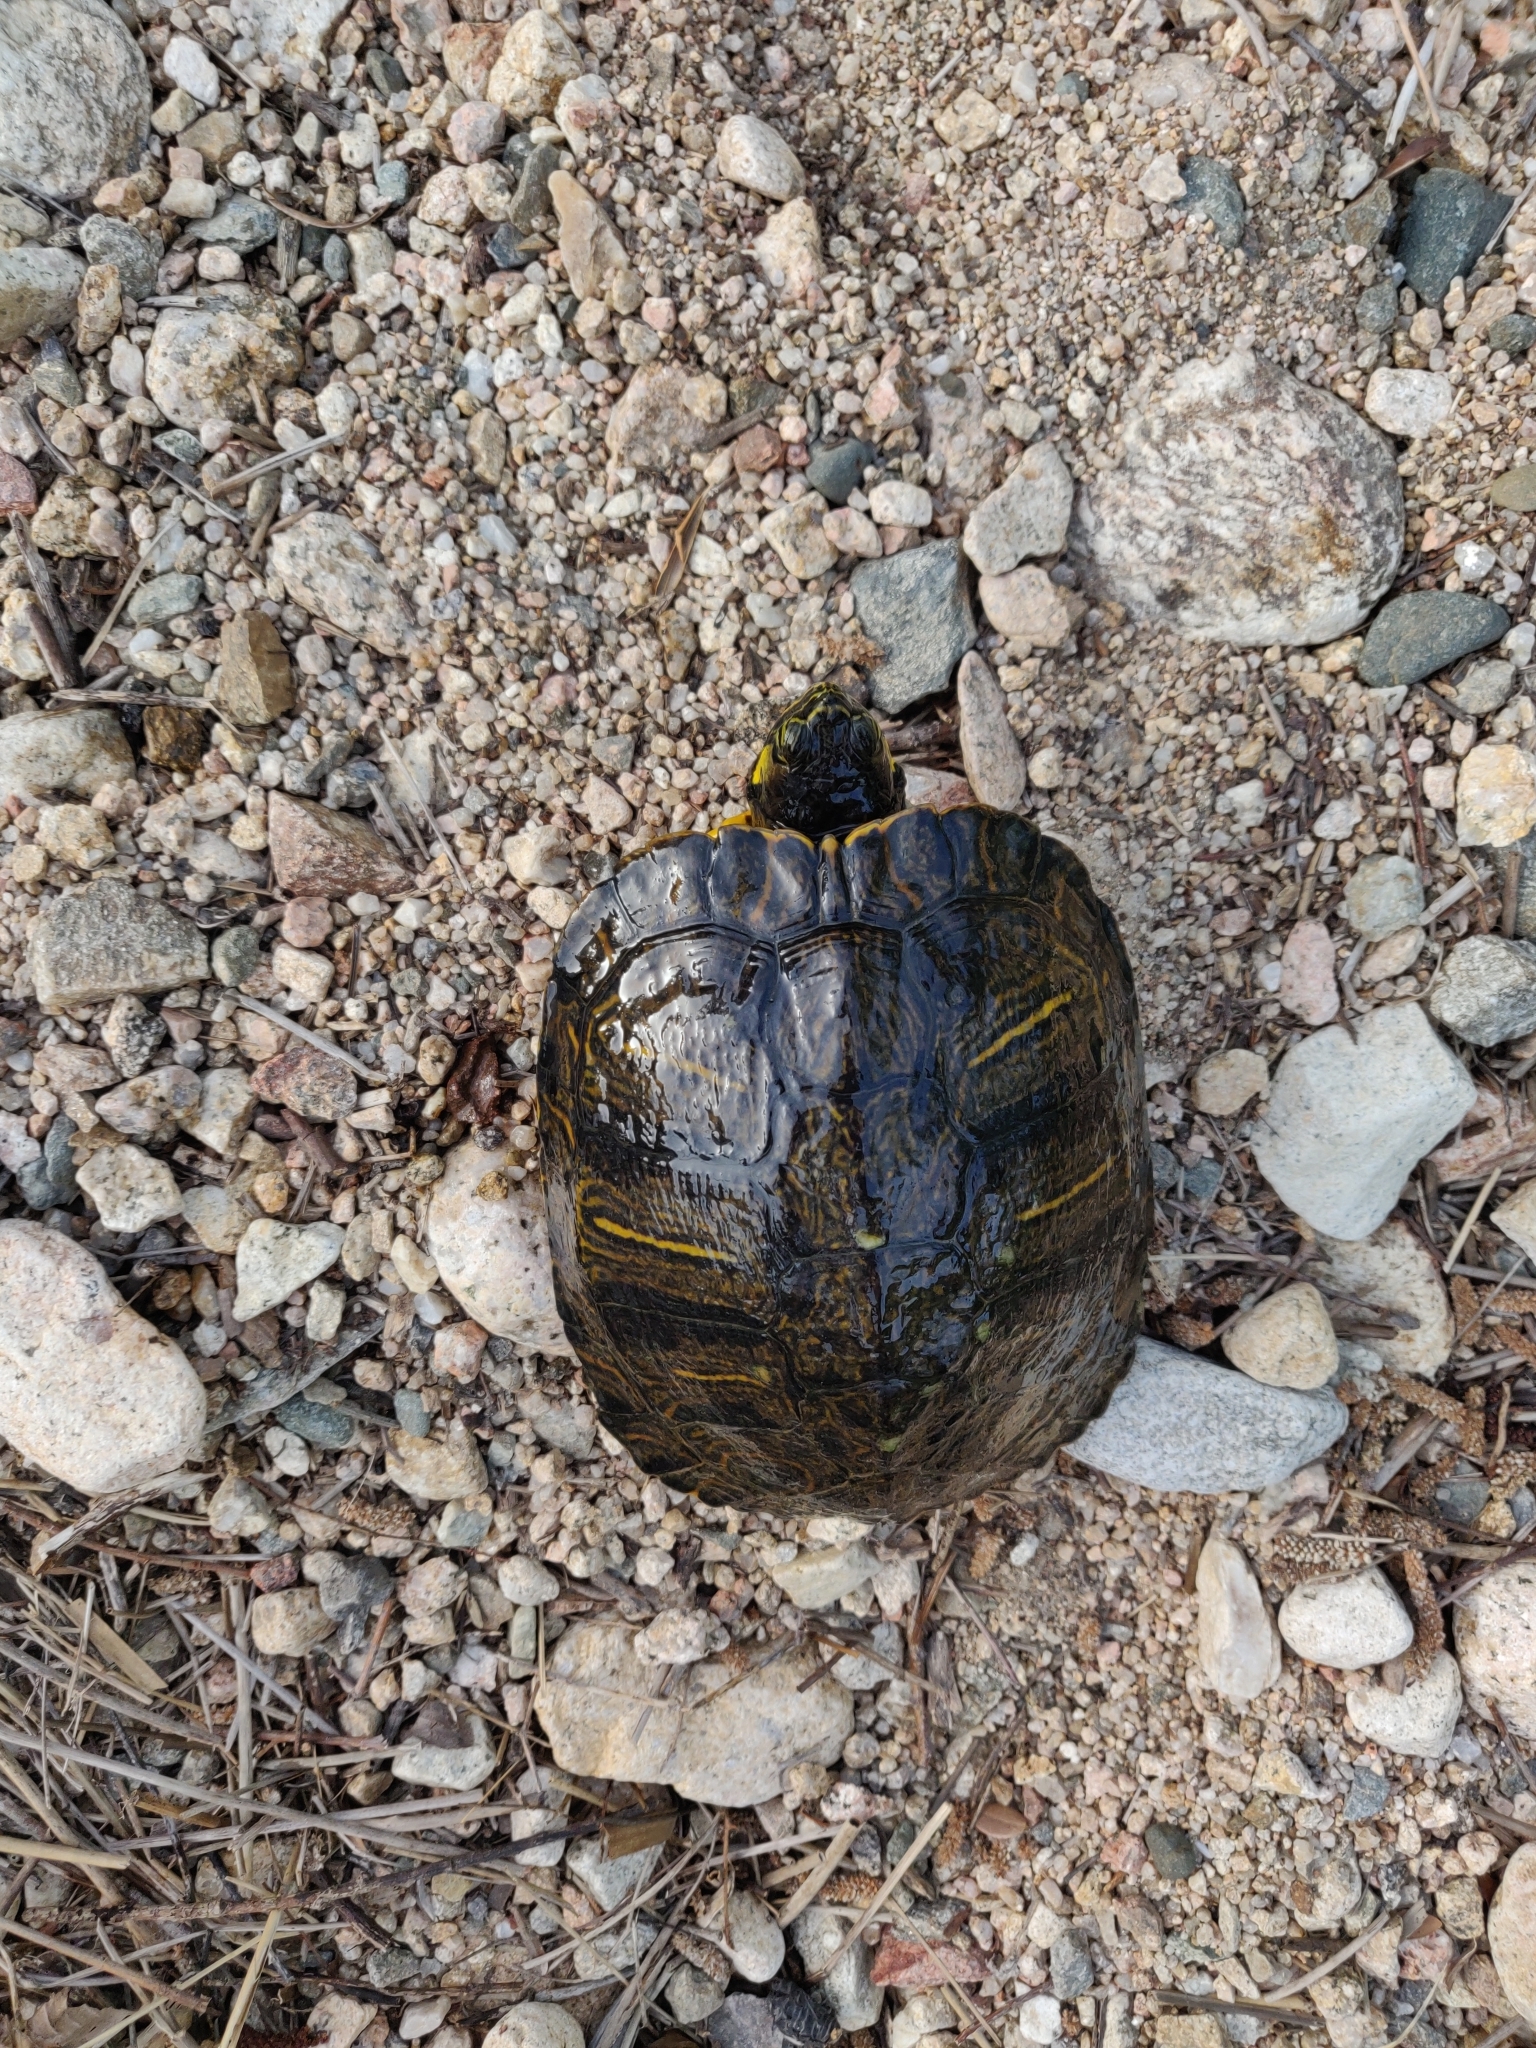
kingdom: Animalia
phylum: Chordata
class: Testudines
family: Emydidae
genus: Trachemys
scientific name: Trachemys scripta
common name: Slider
